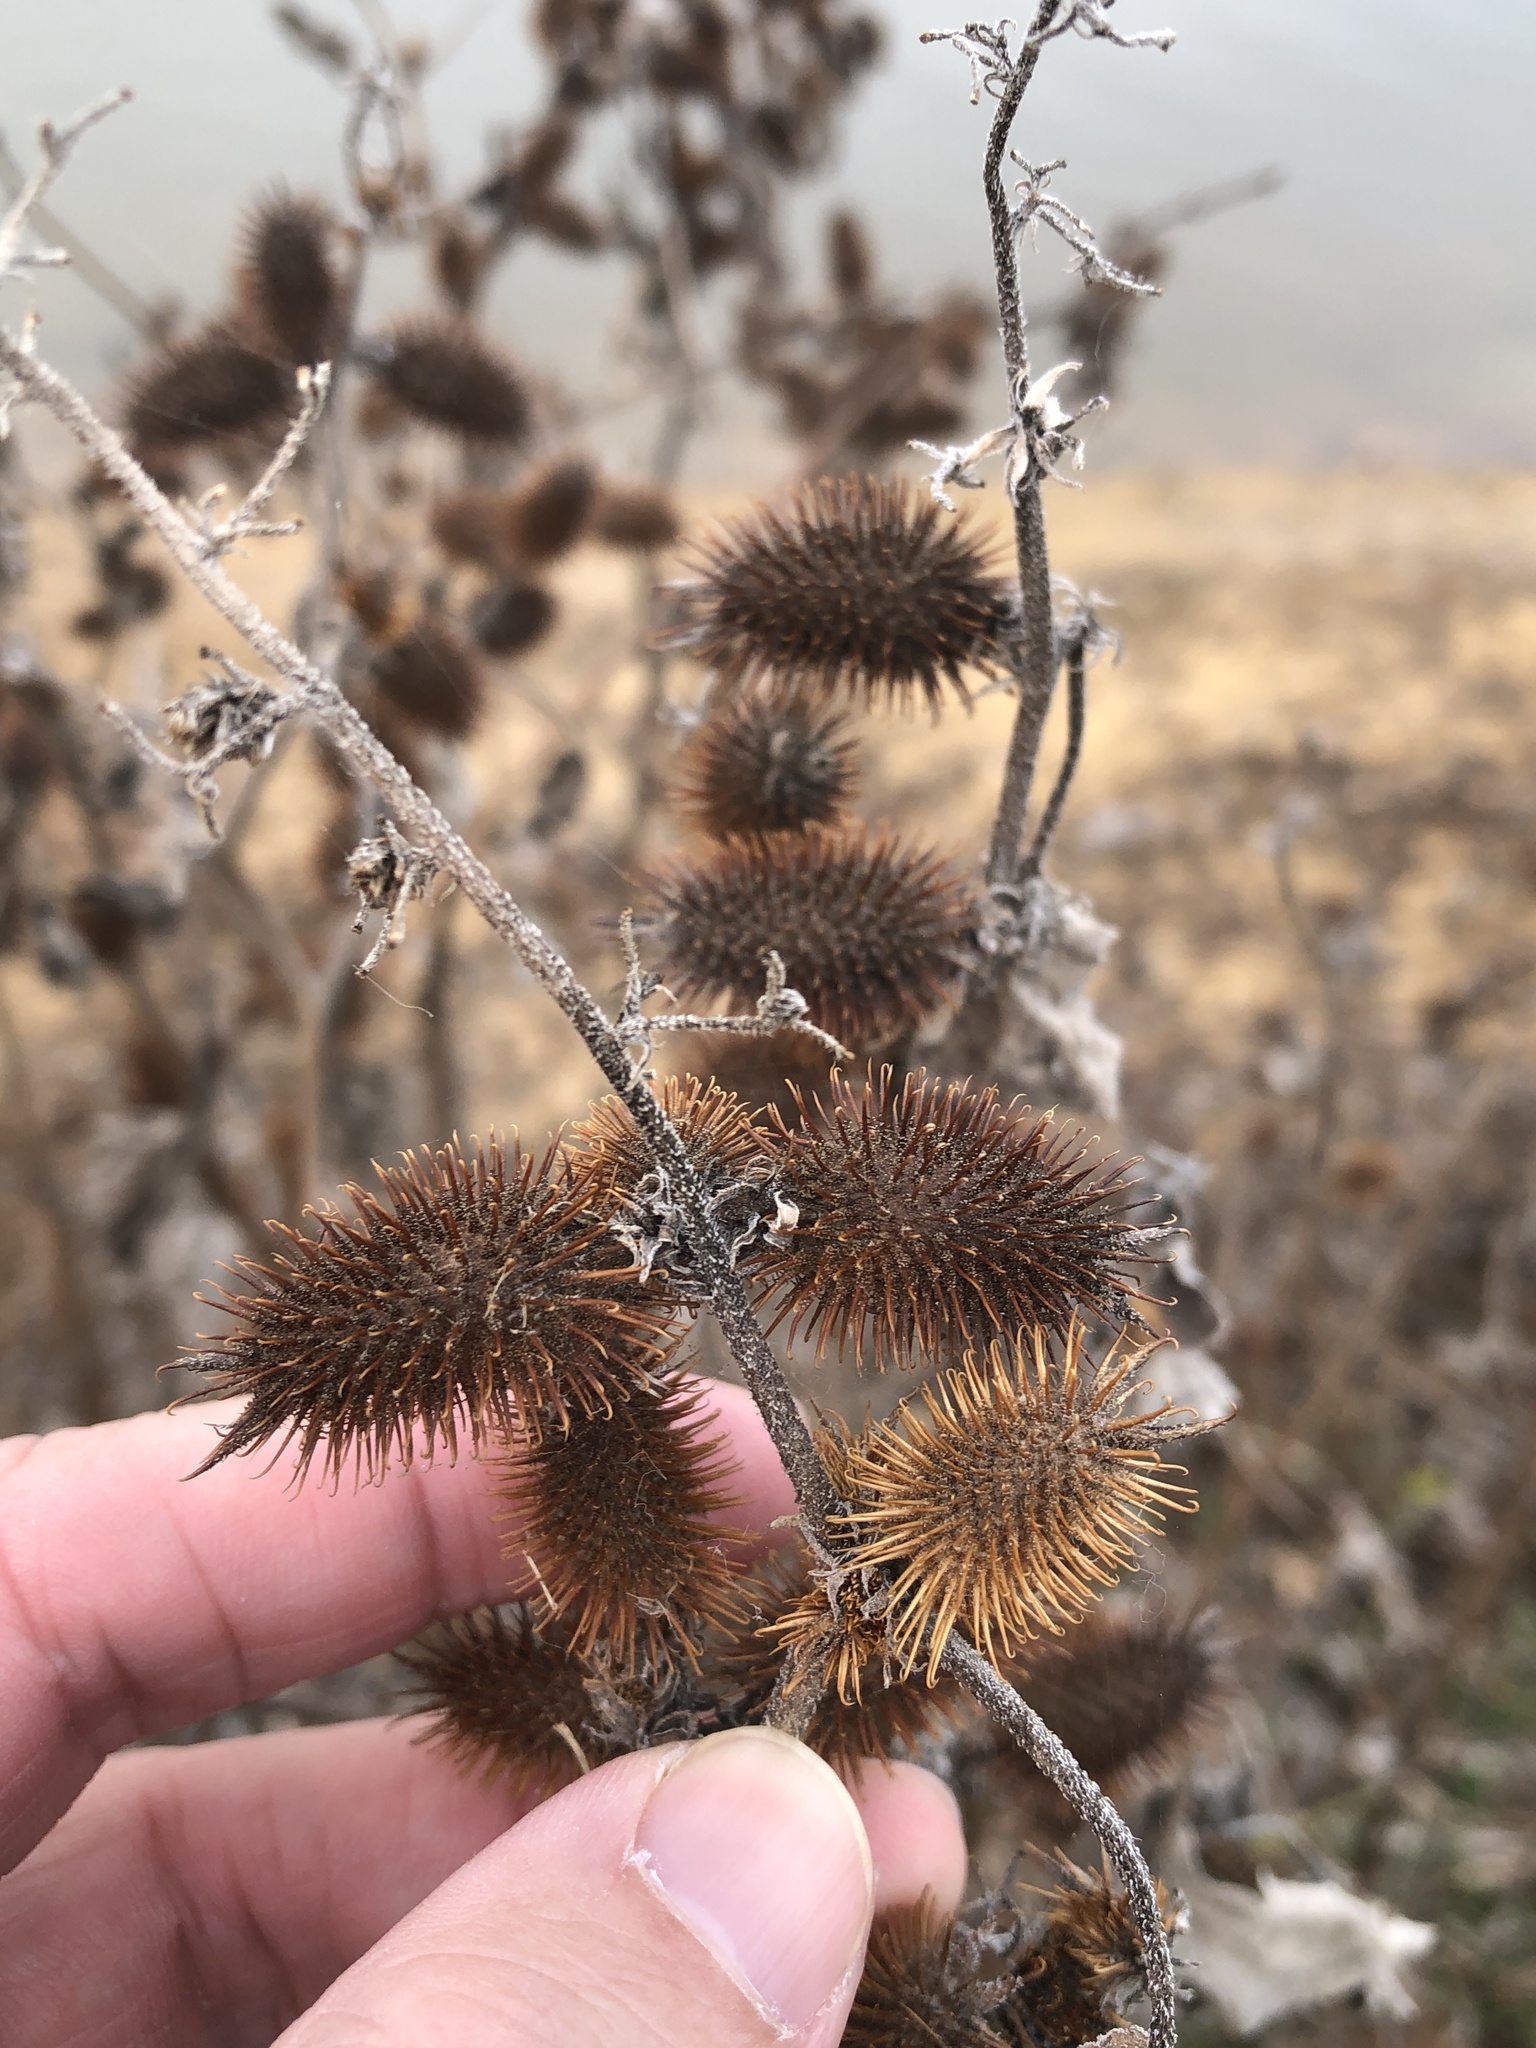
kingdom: Plantae
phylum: Tracheophyta
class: Magnoliopsida
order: Asterales
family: Asteraceae
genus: Xanthium
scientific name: Xanthium strumarium
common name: Rough cocklebur
